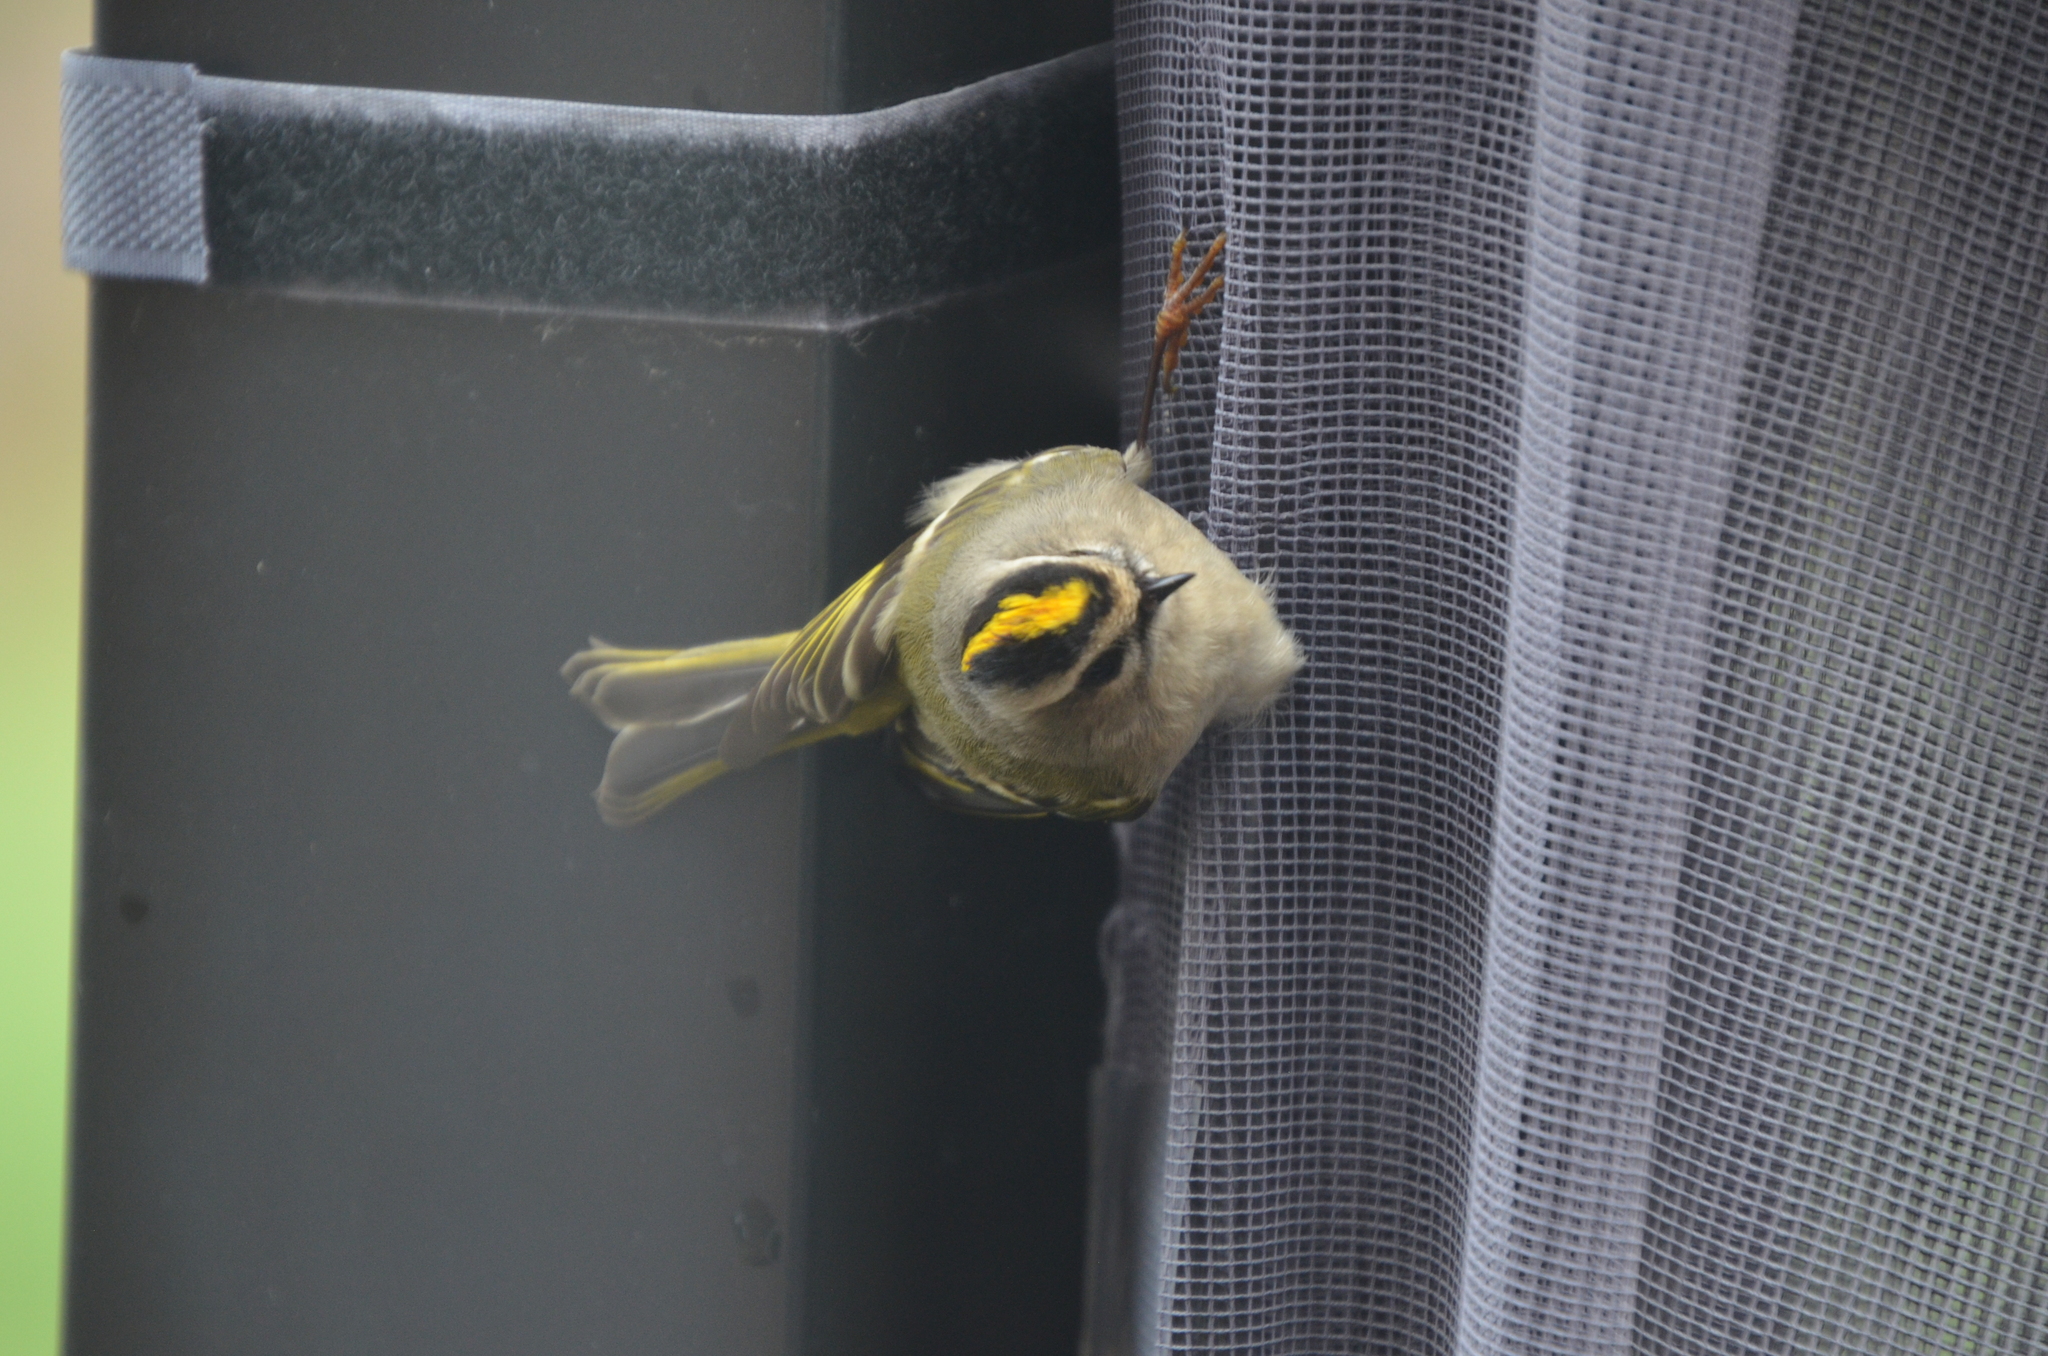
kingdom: Animalia
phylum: Chordata
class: Aves
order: Passeriformes
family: Regulidae
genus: Regulus
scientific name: Regulus satrapa
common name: Golden-crowned kinglet
